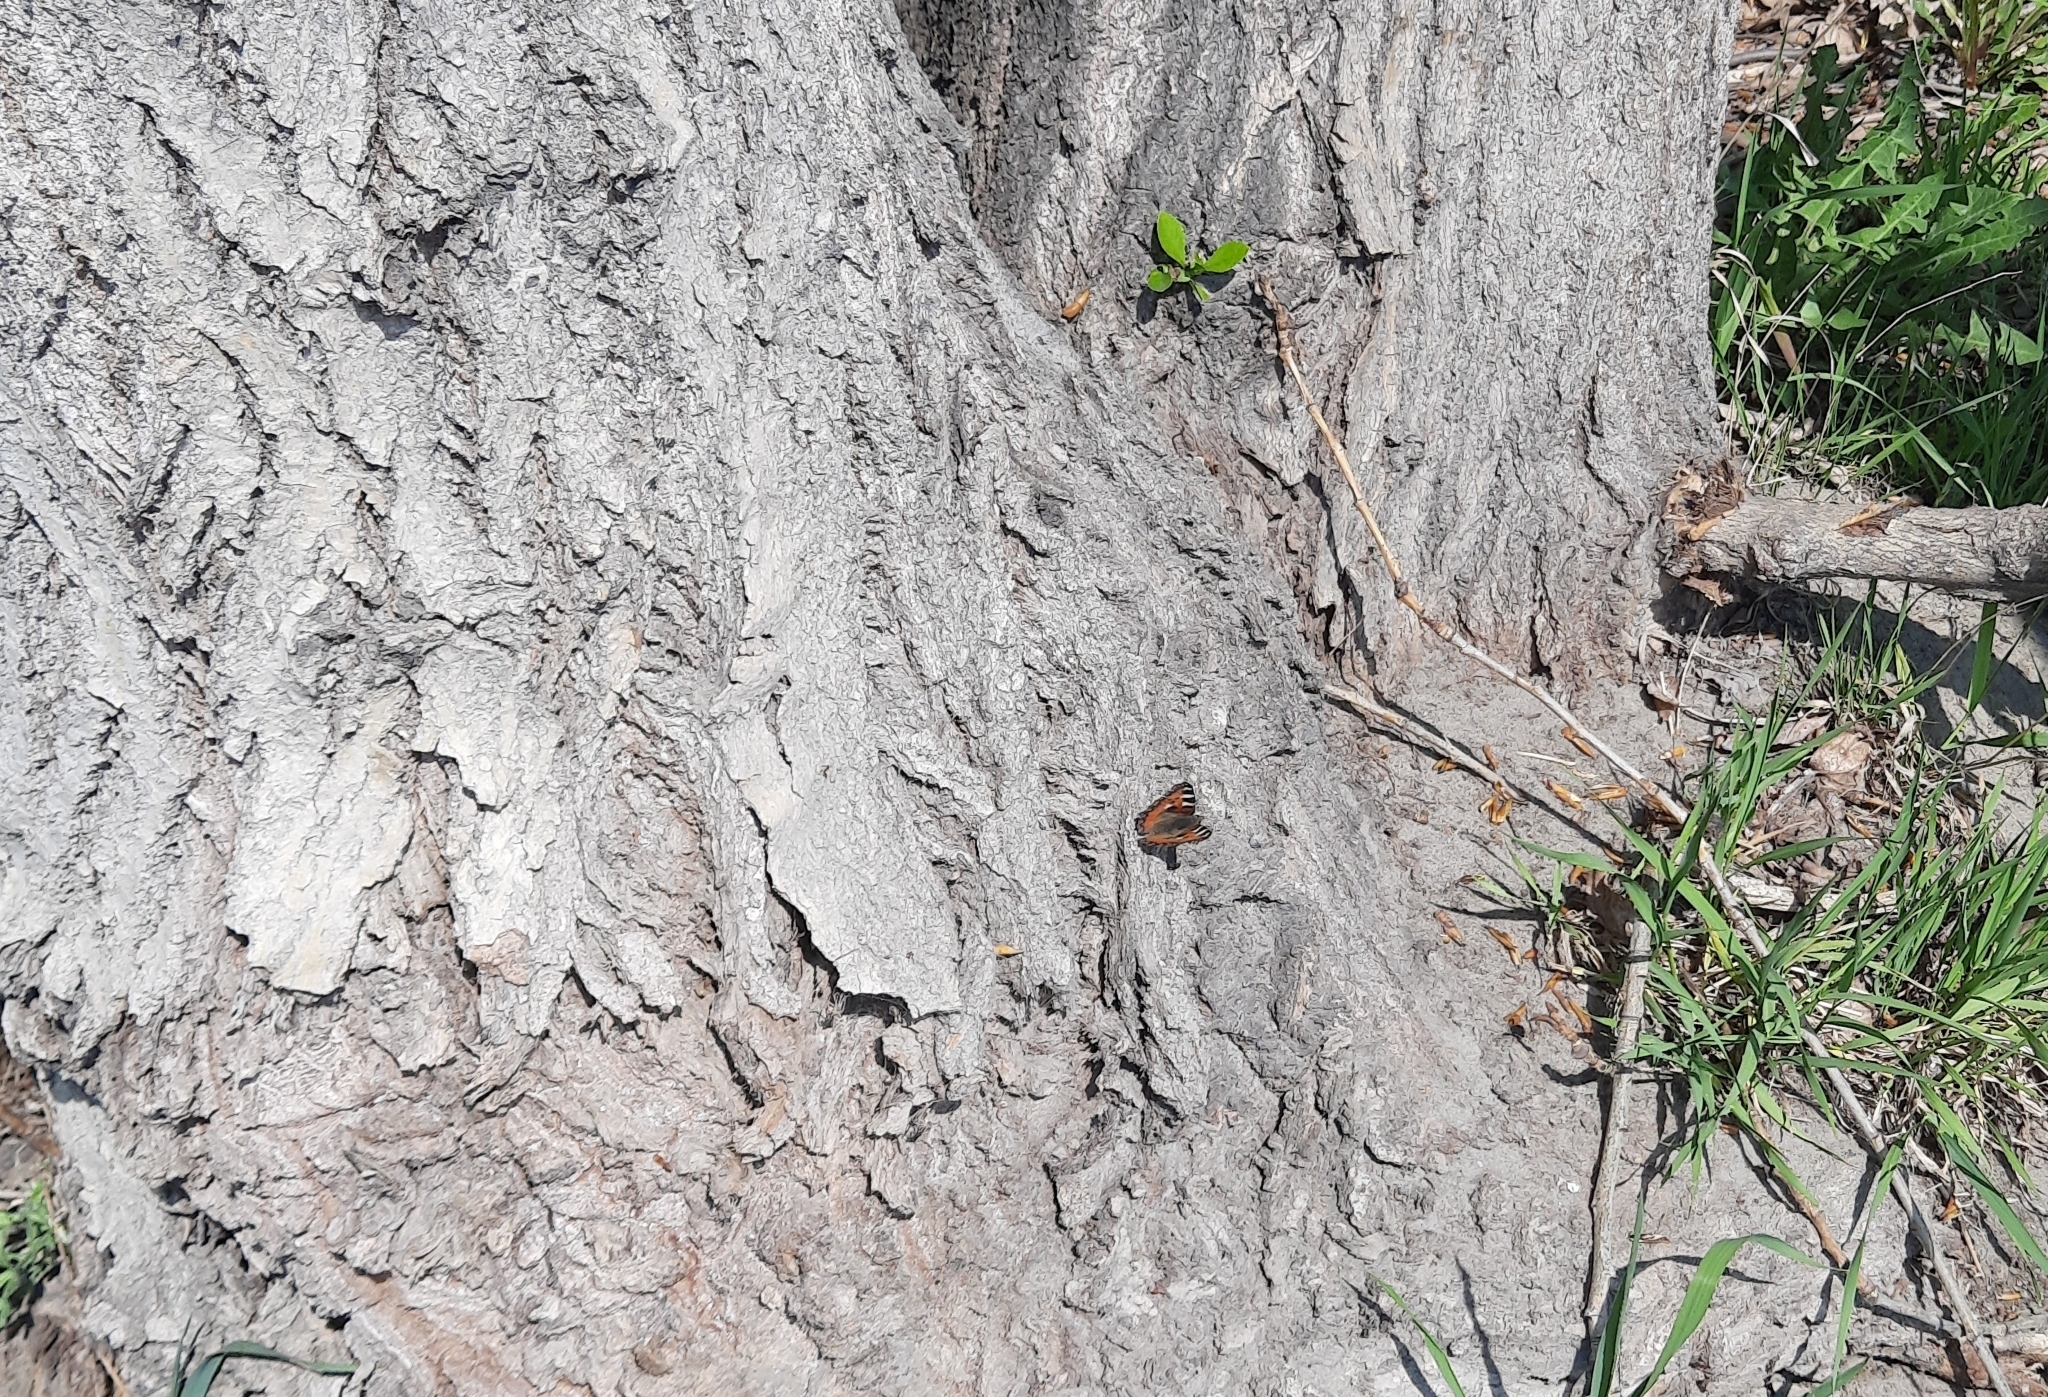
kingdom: Animalia
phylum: Arthropoda
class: Insecta
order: Lepidoptera
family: Nymphalidae
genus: Aglais
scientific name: Aglais urticae
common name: Small tortoiseshell
